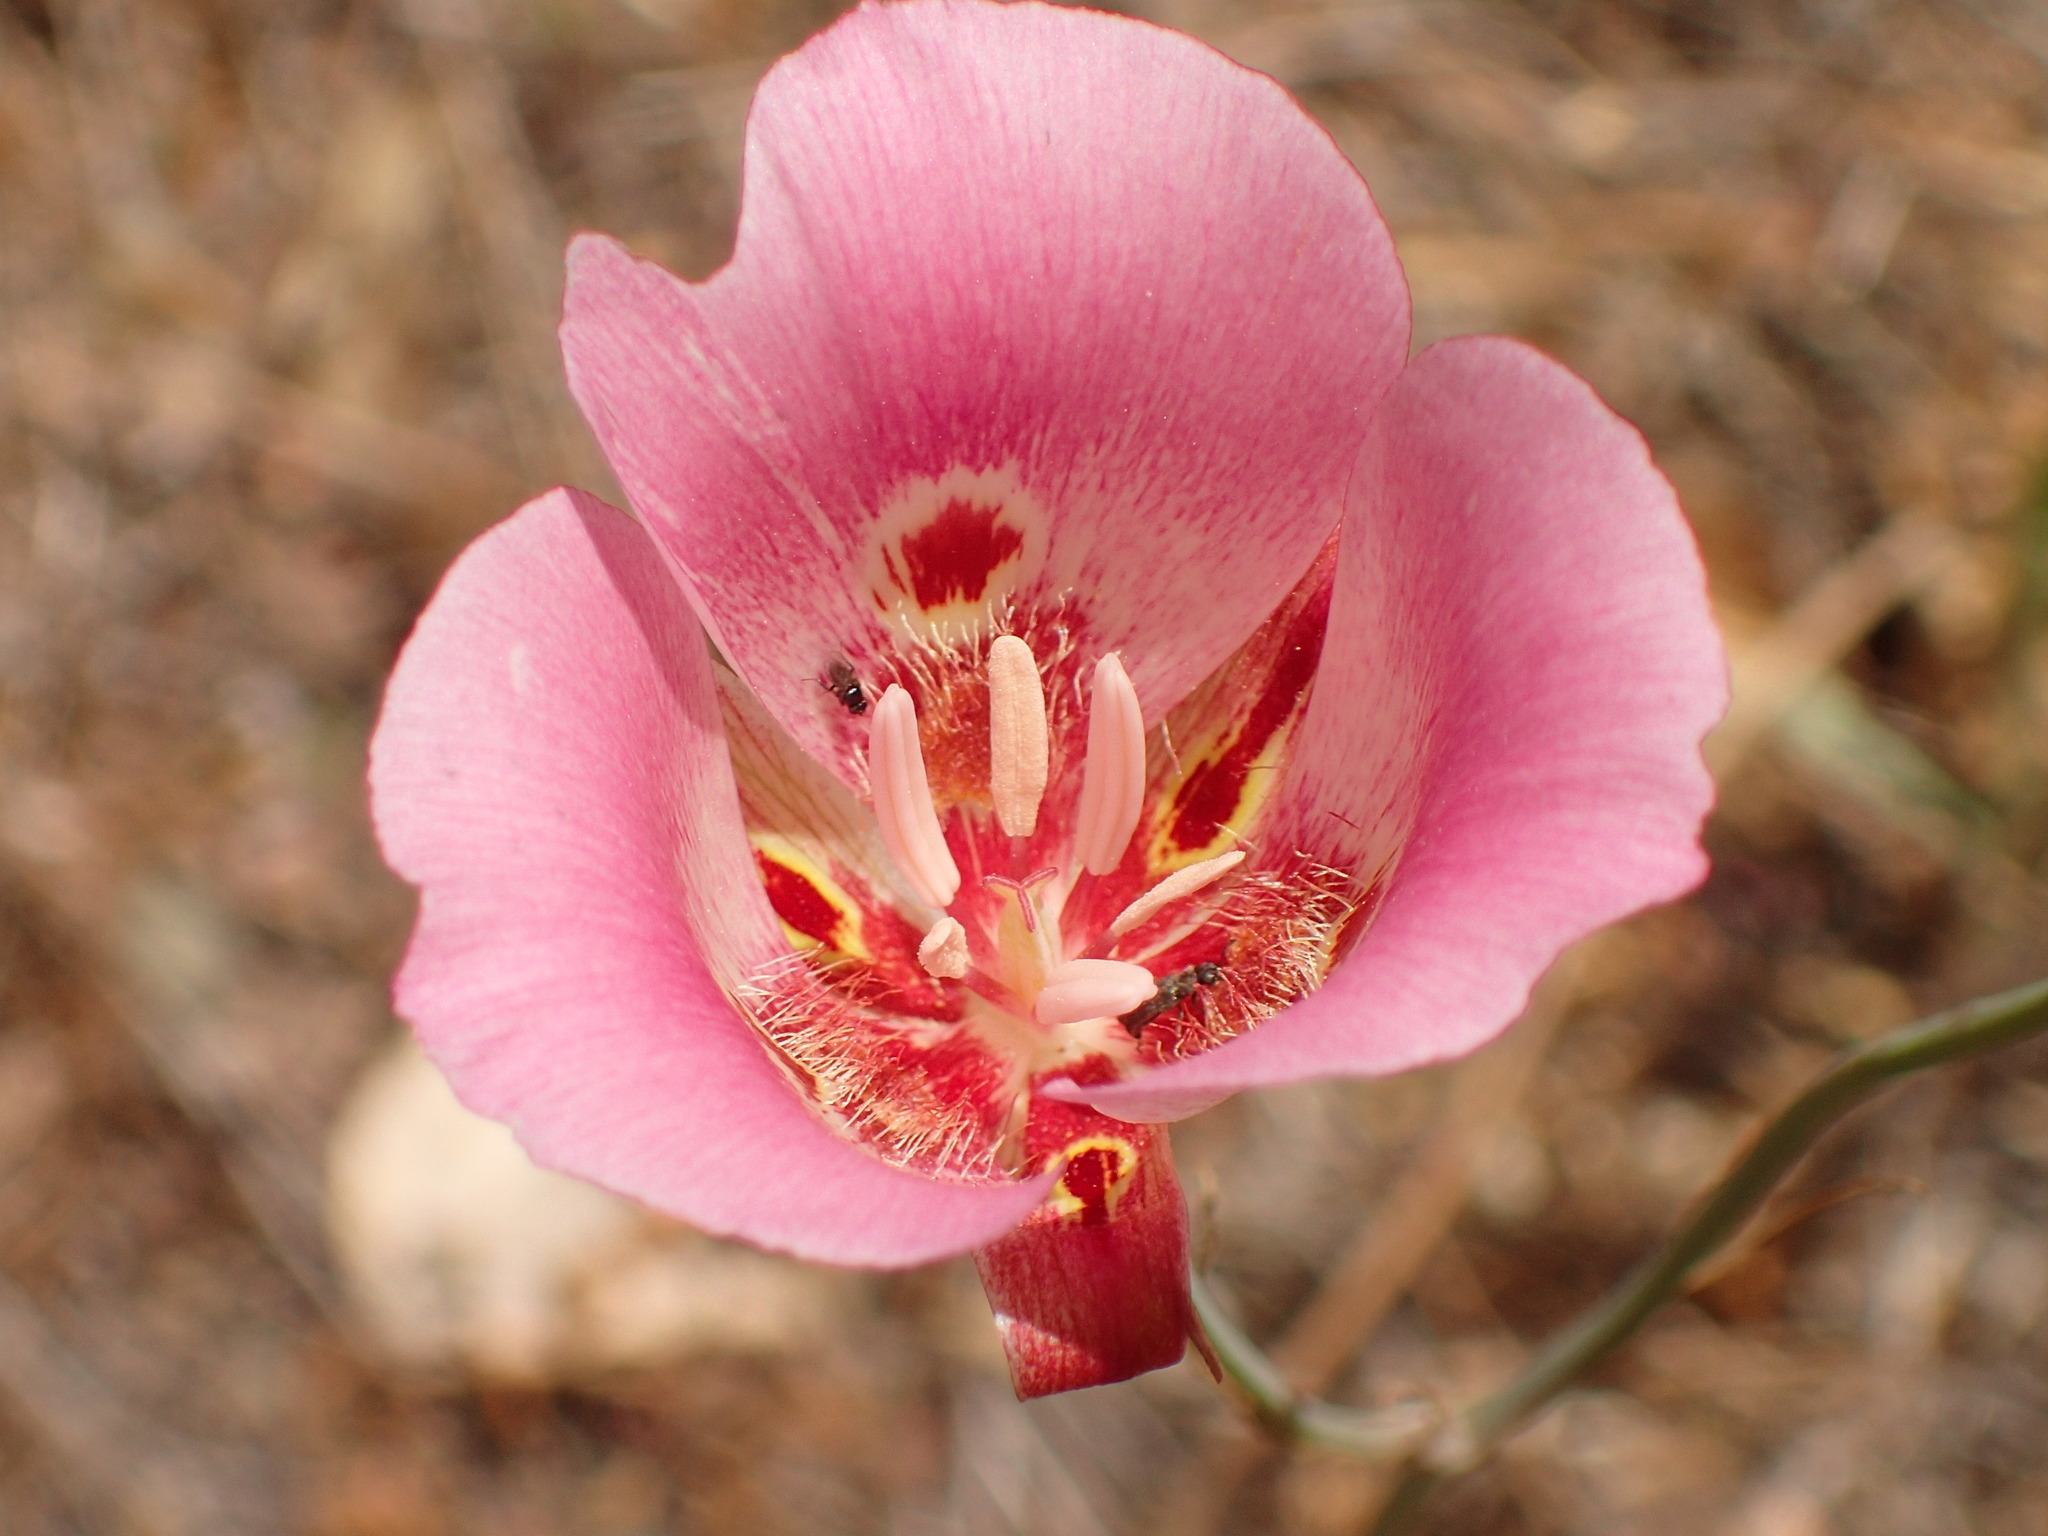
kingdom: Plantae
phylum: Tracheophyta
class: Liliopsida
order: Liliales
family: Liliaceae
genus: Calochortus
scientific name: Calochortus venustus
